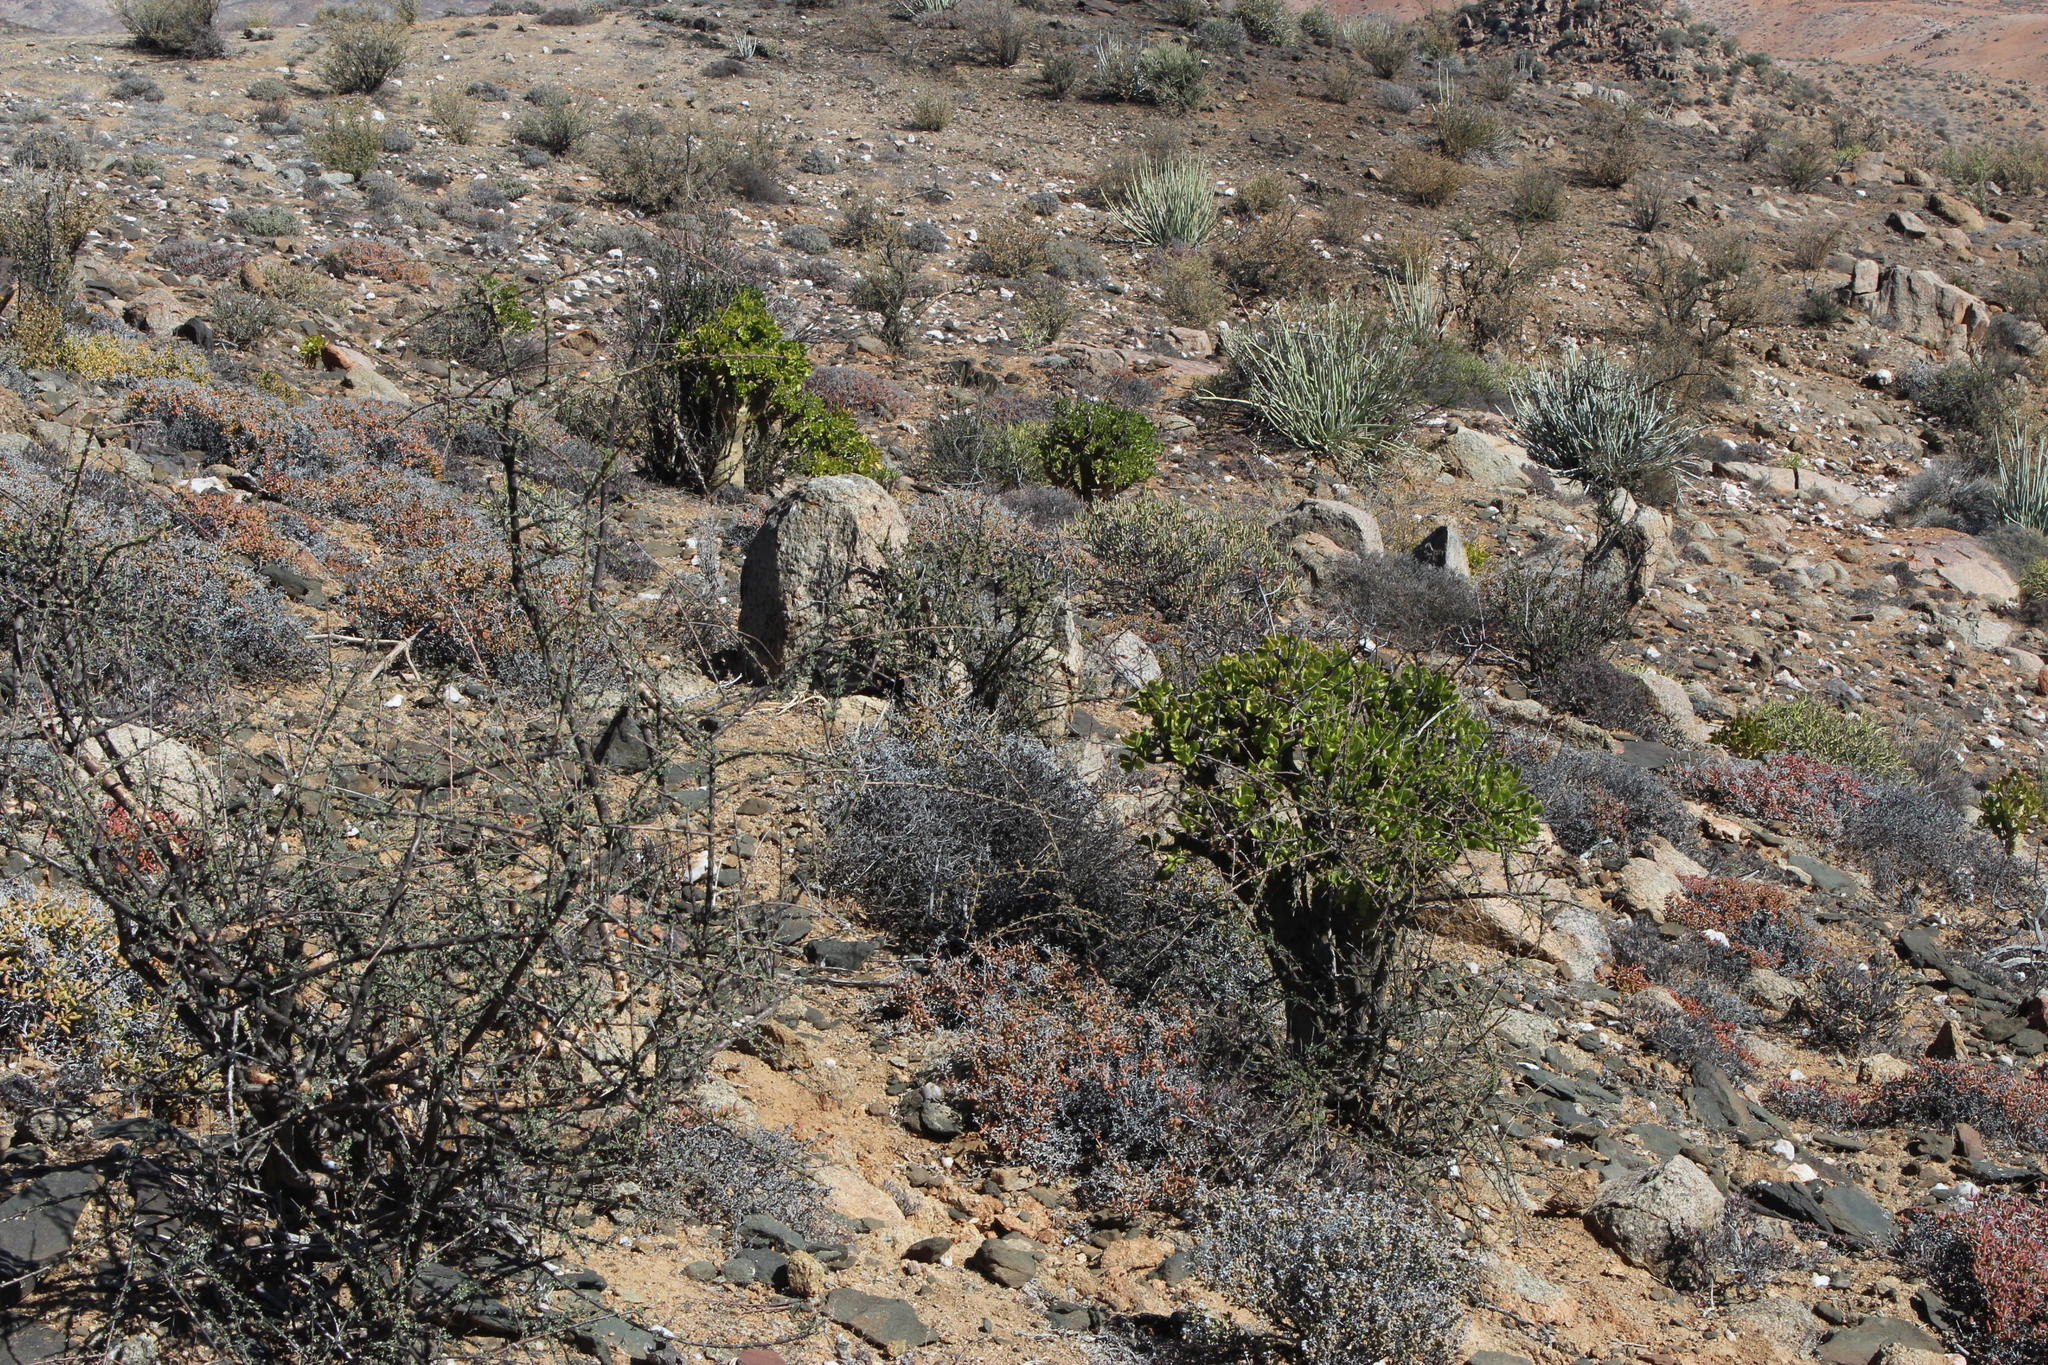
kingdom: Plantae
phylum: Tracheophyta
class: Magnoliopsida
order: Saxifragales
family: Crassulaceae
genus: Tylecodon
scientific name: Tylecodon paniculatus
